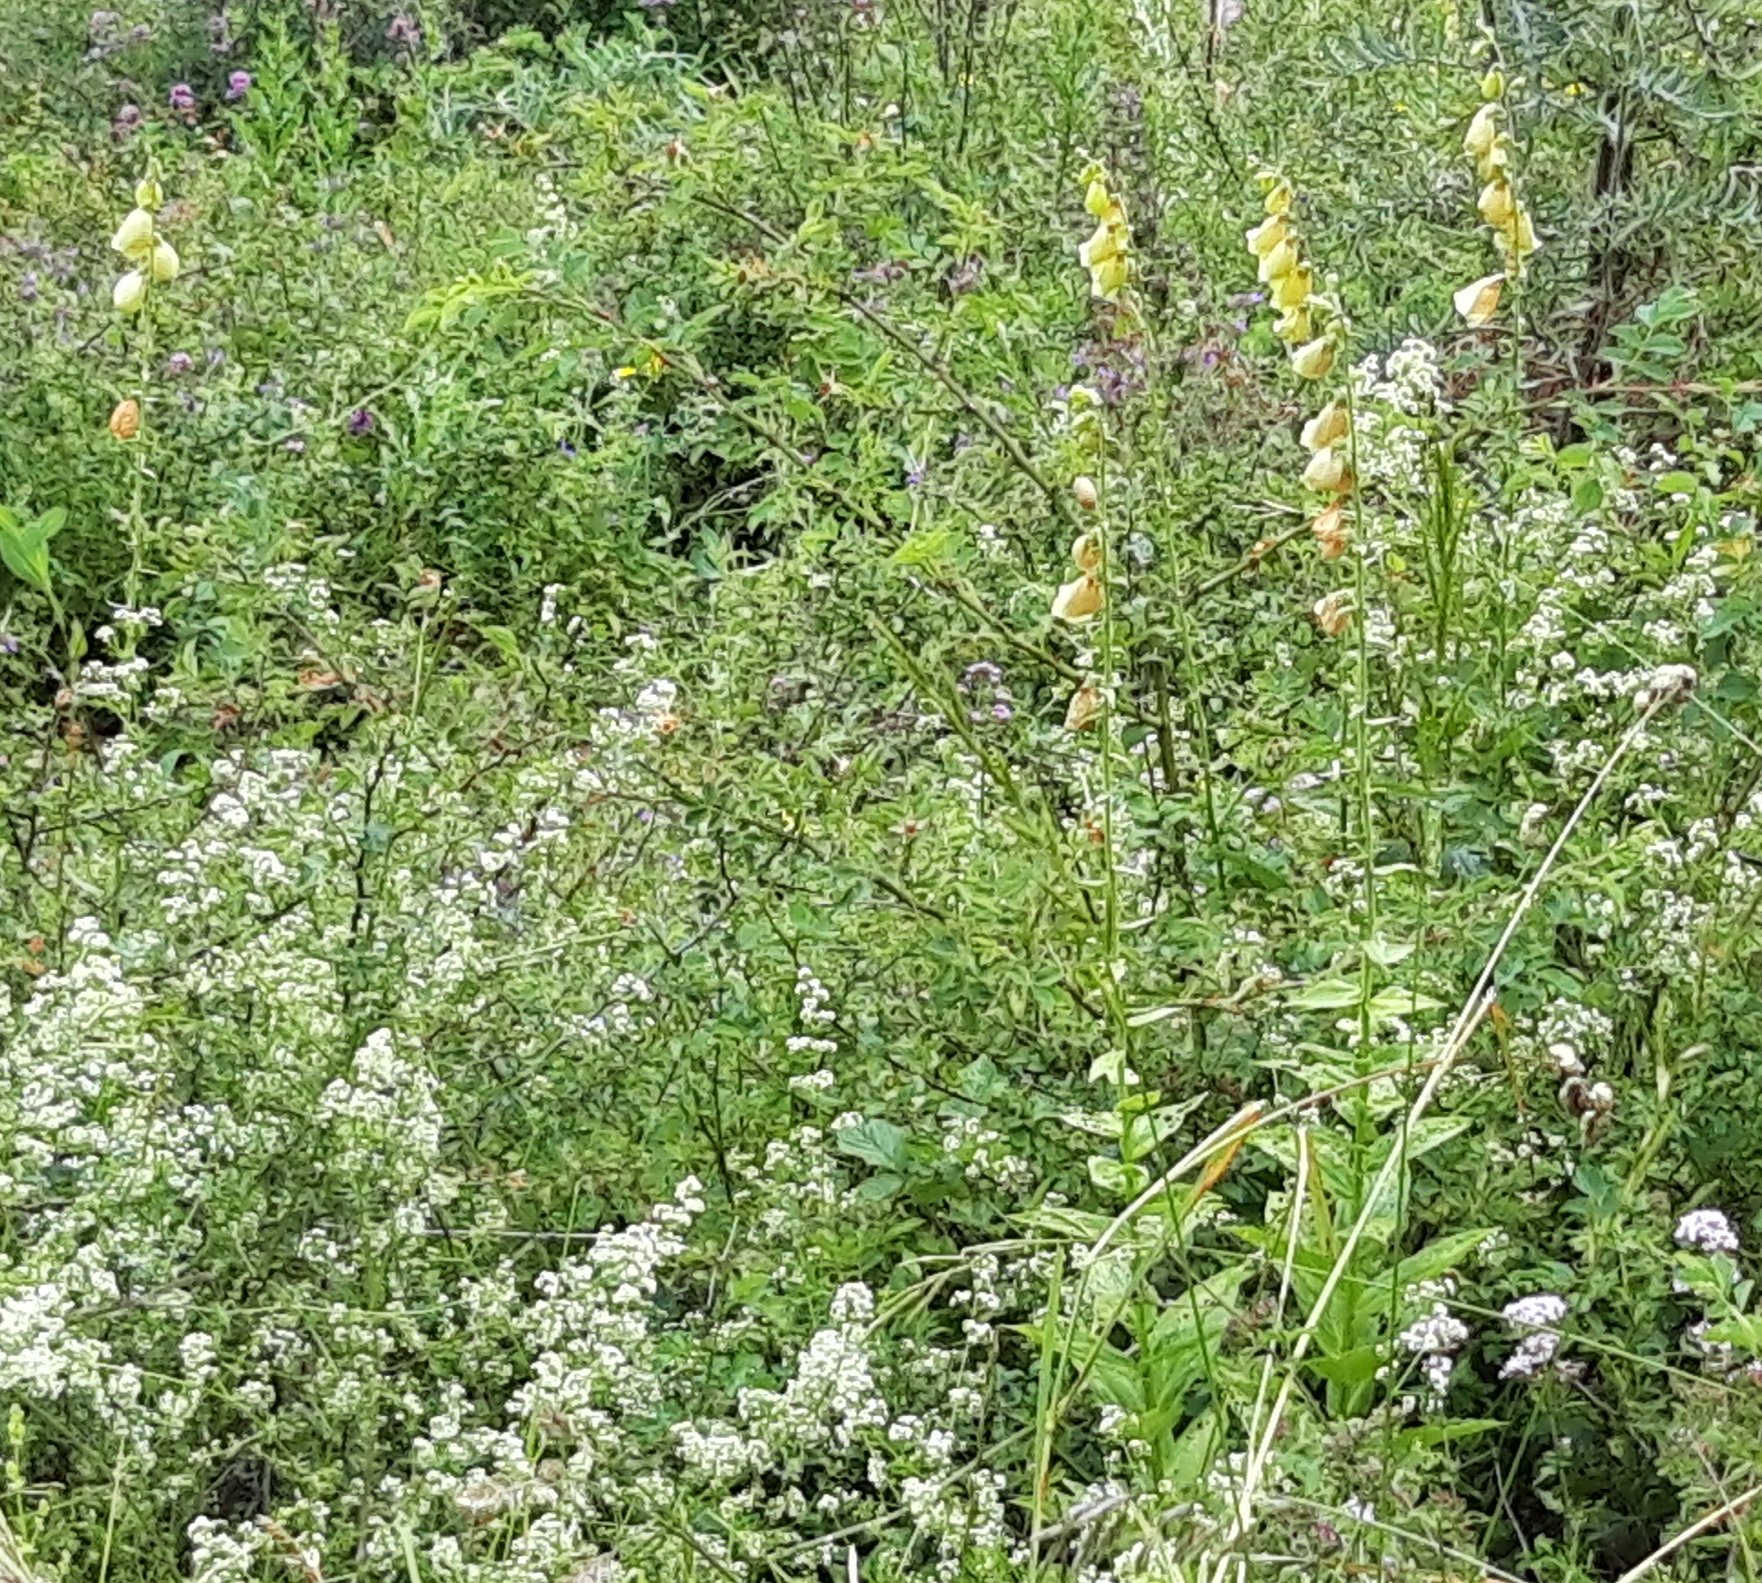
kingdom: Plantae
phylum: Tracheophyta
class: Magnoliopsida
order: Lamiales
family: Plantaginaceae
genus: Digitalis
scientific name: Digitalis grandiflora
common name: Yellow foxglove
